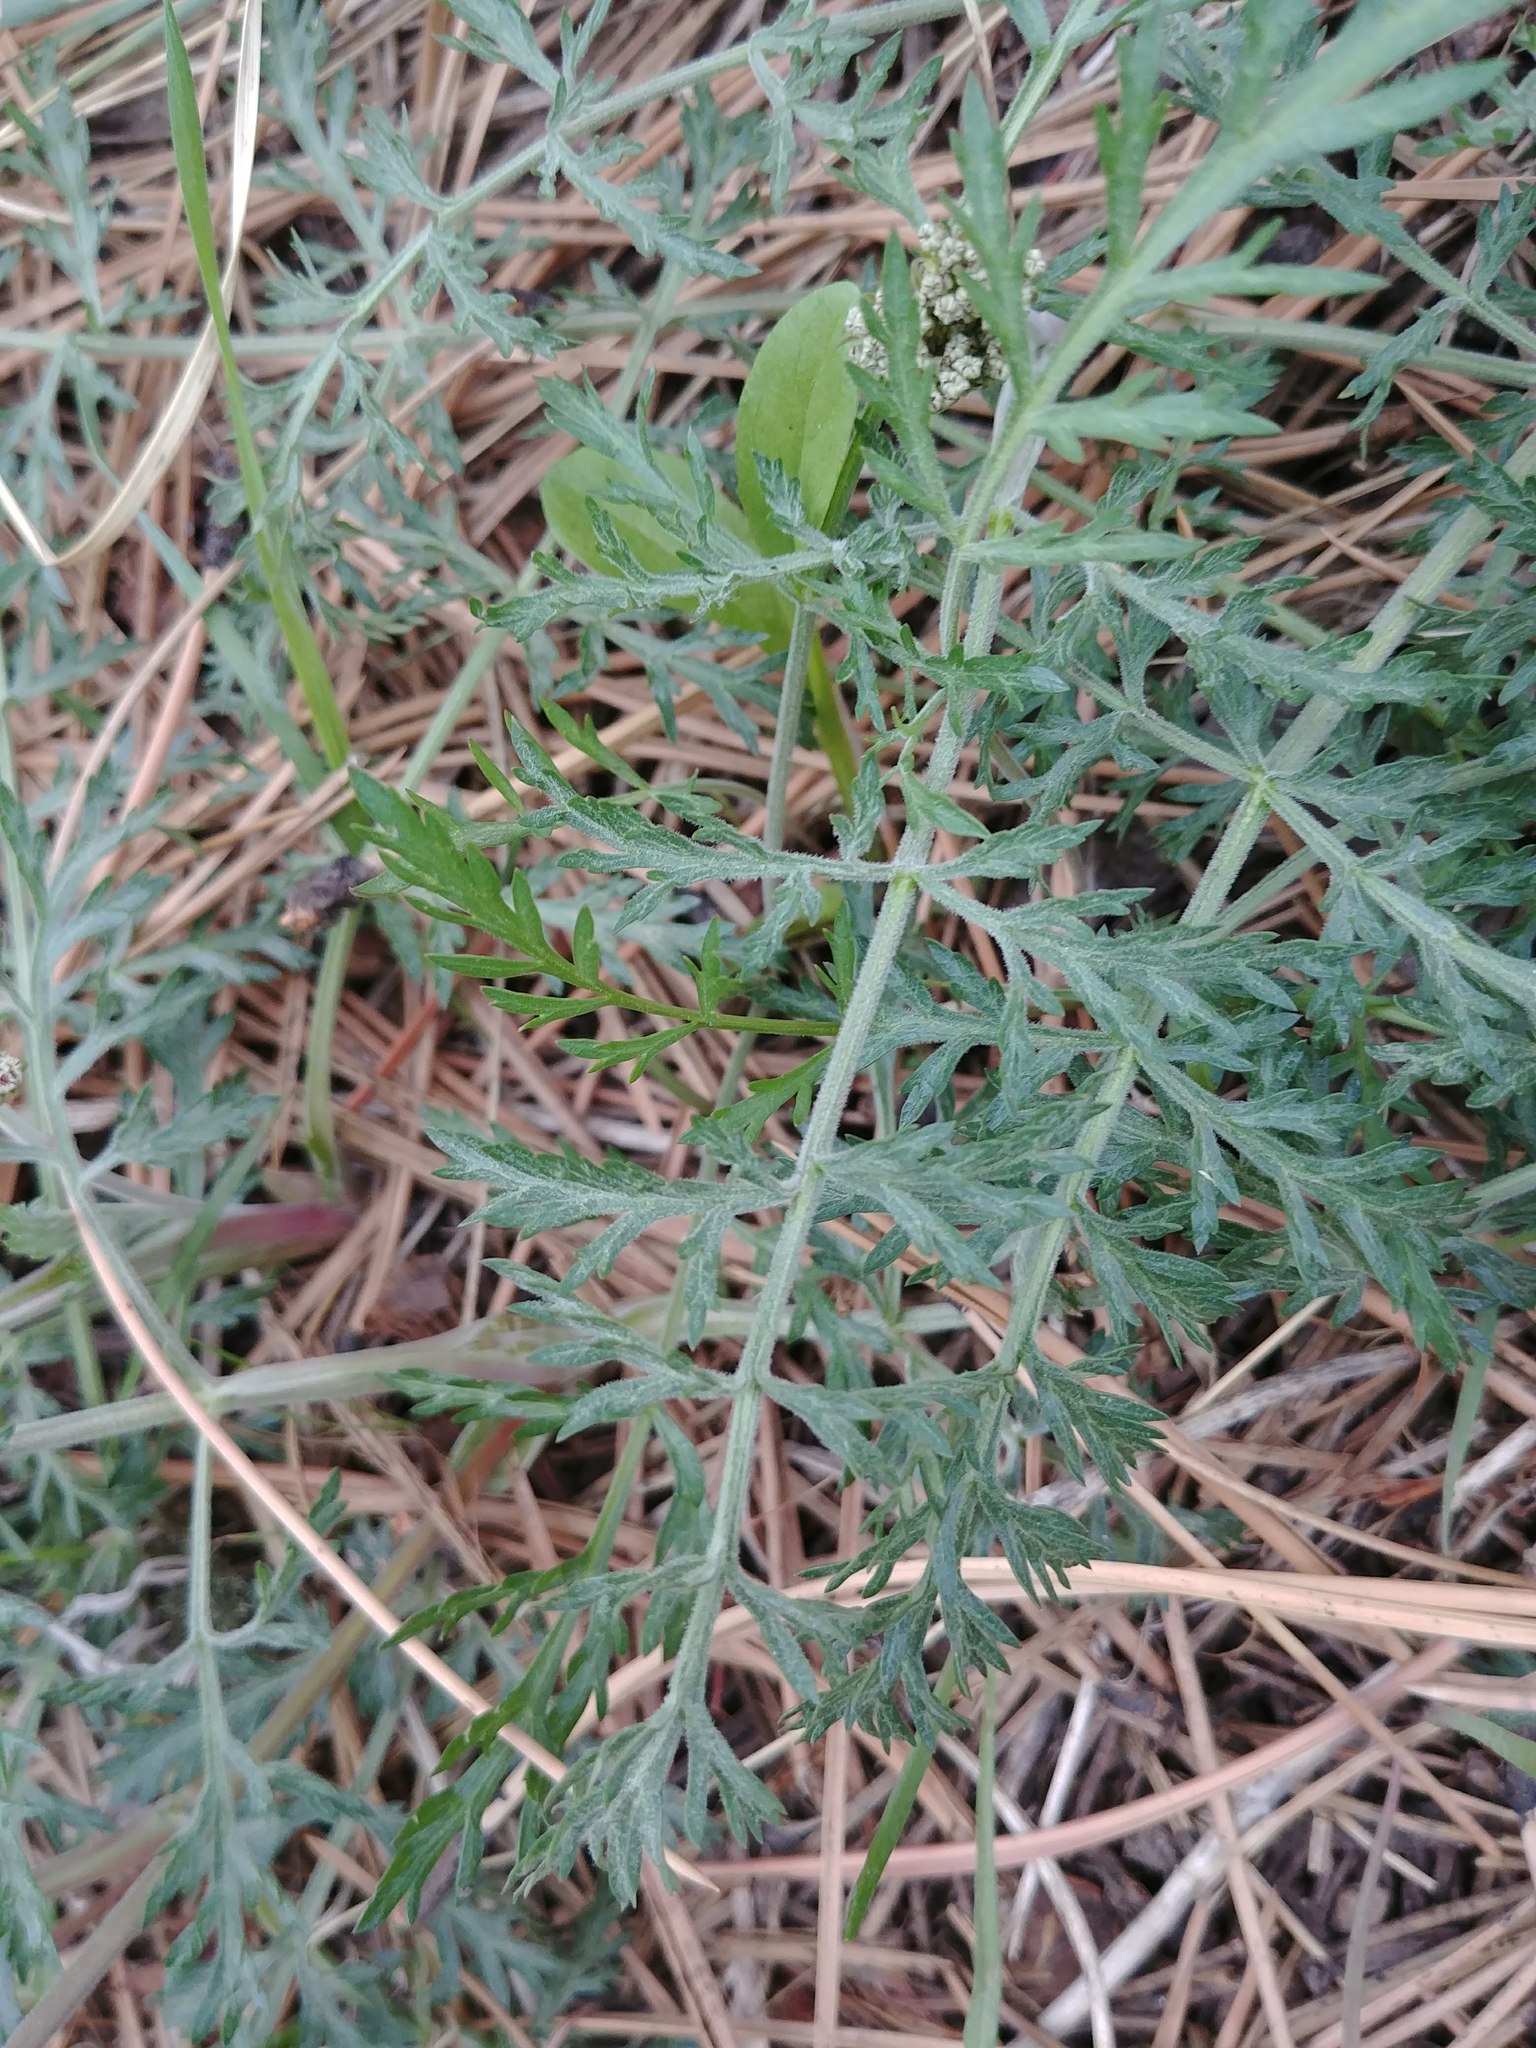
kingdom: Plantae
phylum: Tracheophyta
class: Magnoliopsida
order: Apiales
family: Apiaceae
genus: Lomatium
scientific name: Lomatium orientale
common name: Eastern cous
